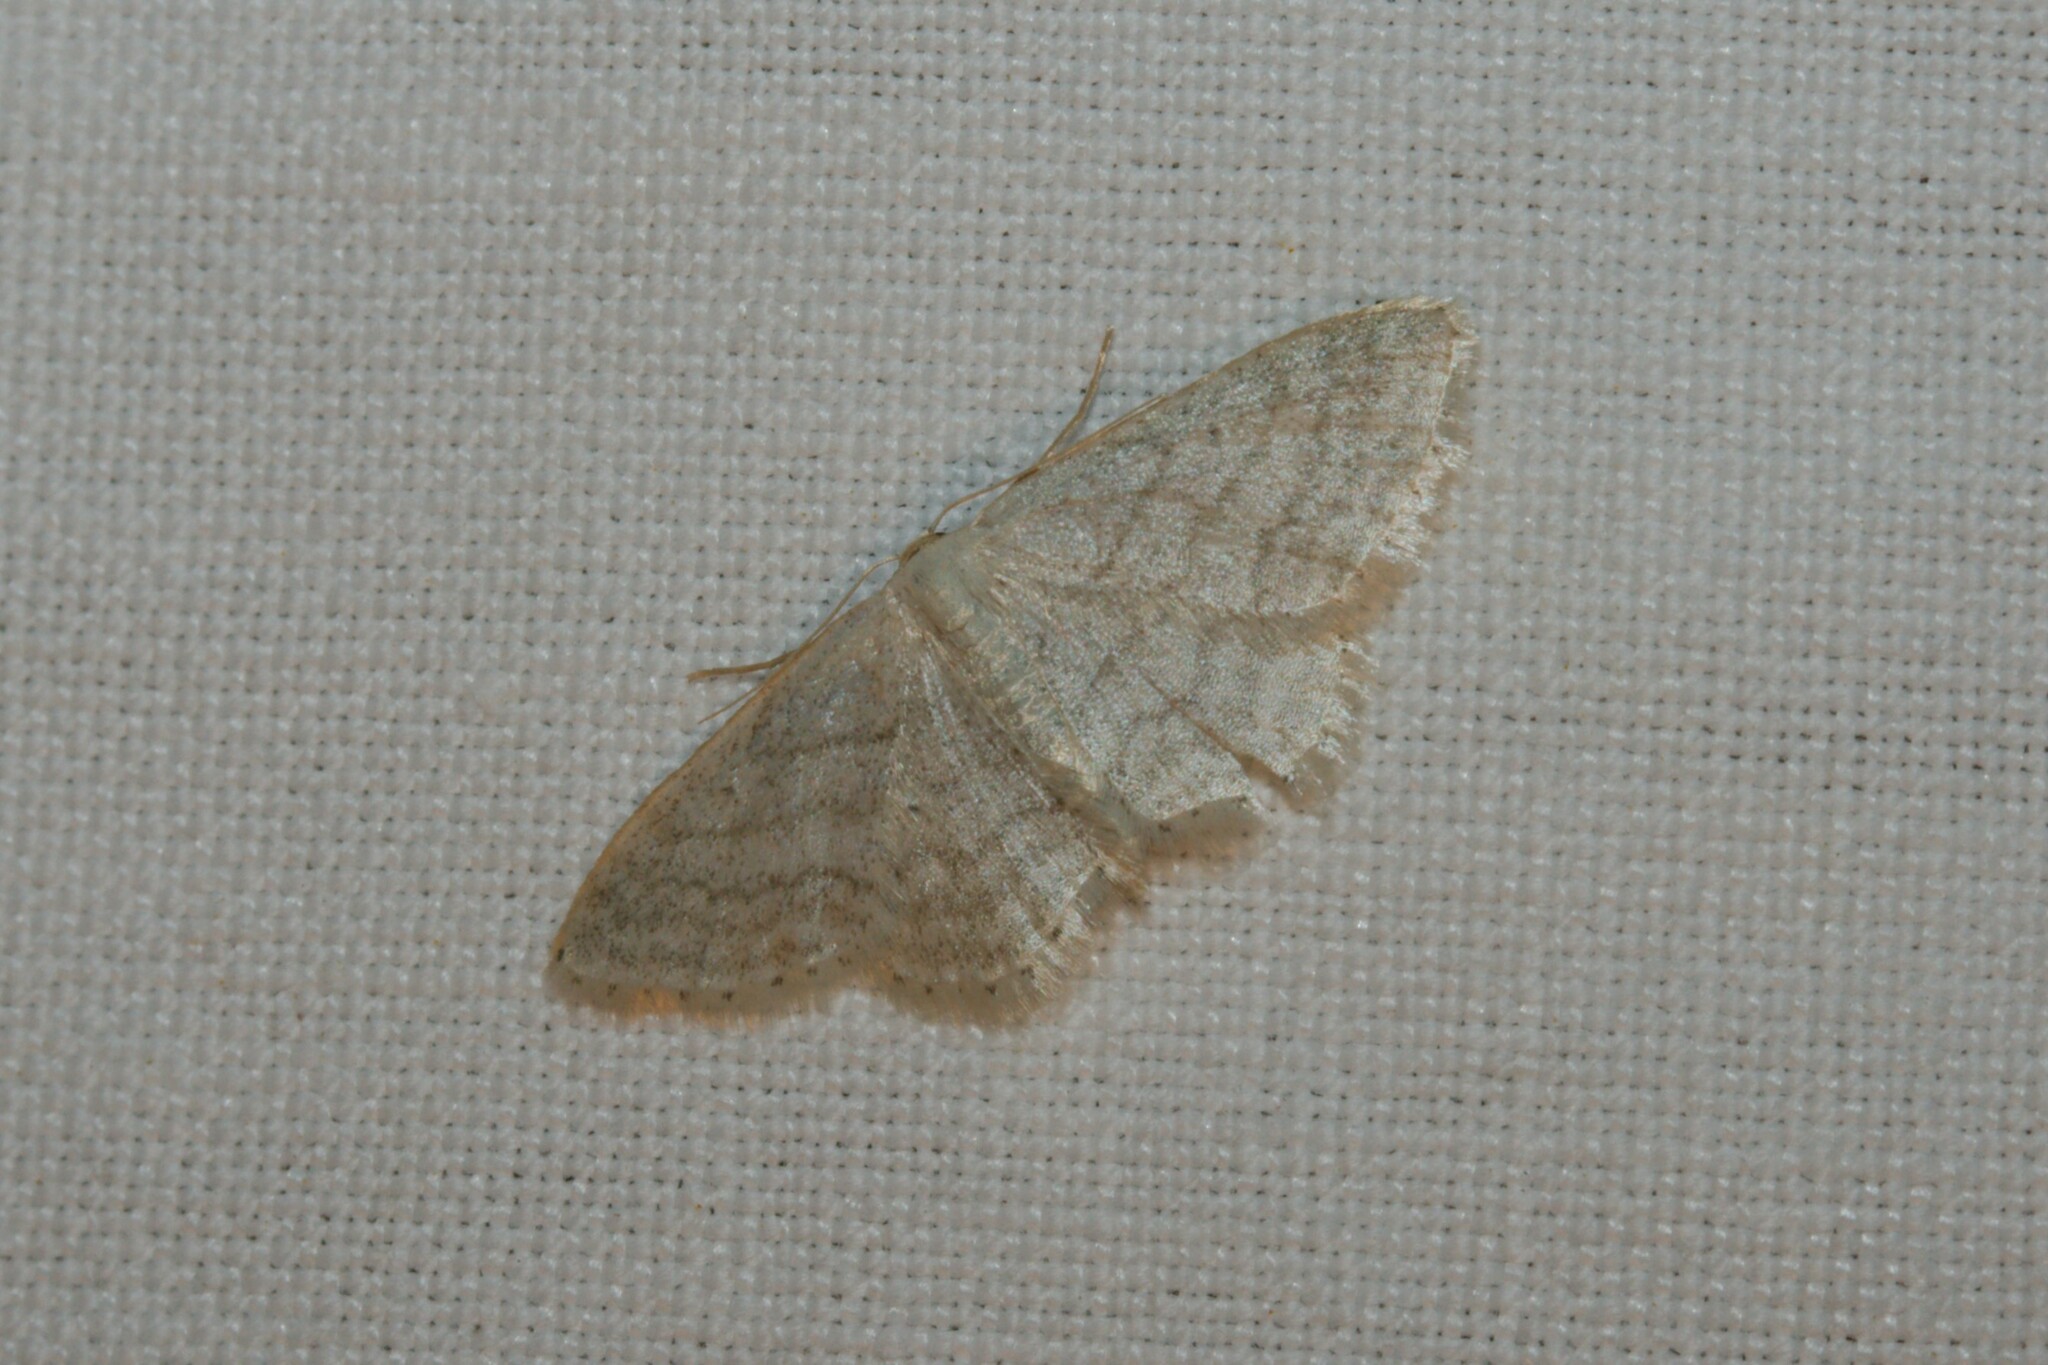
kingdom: Animalia
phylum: Arthropoda
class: Insecta
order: Lepidoptera
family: Geometridae
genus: Idaea
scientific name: Idaea subsericeata
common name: Satin wave
